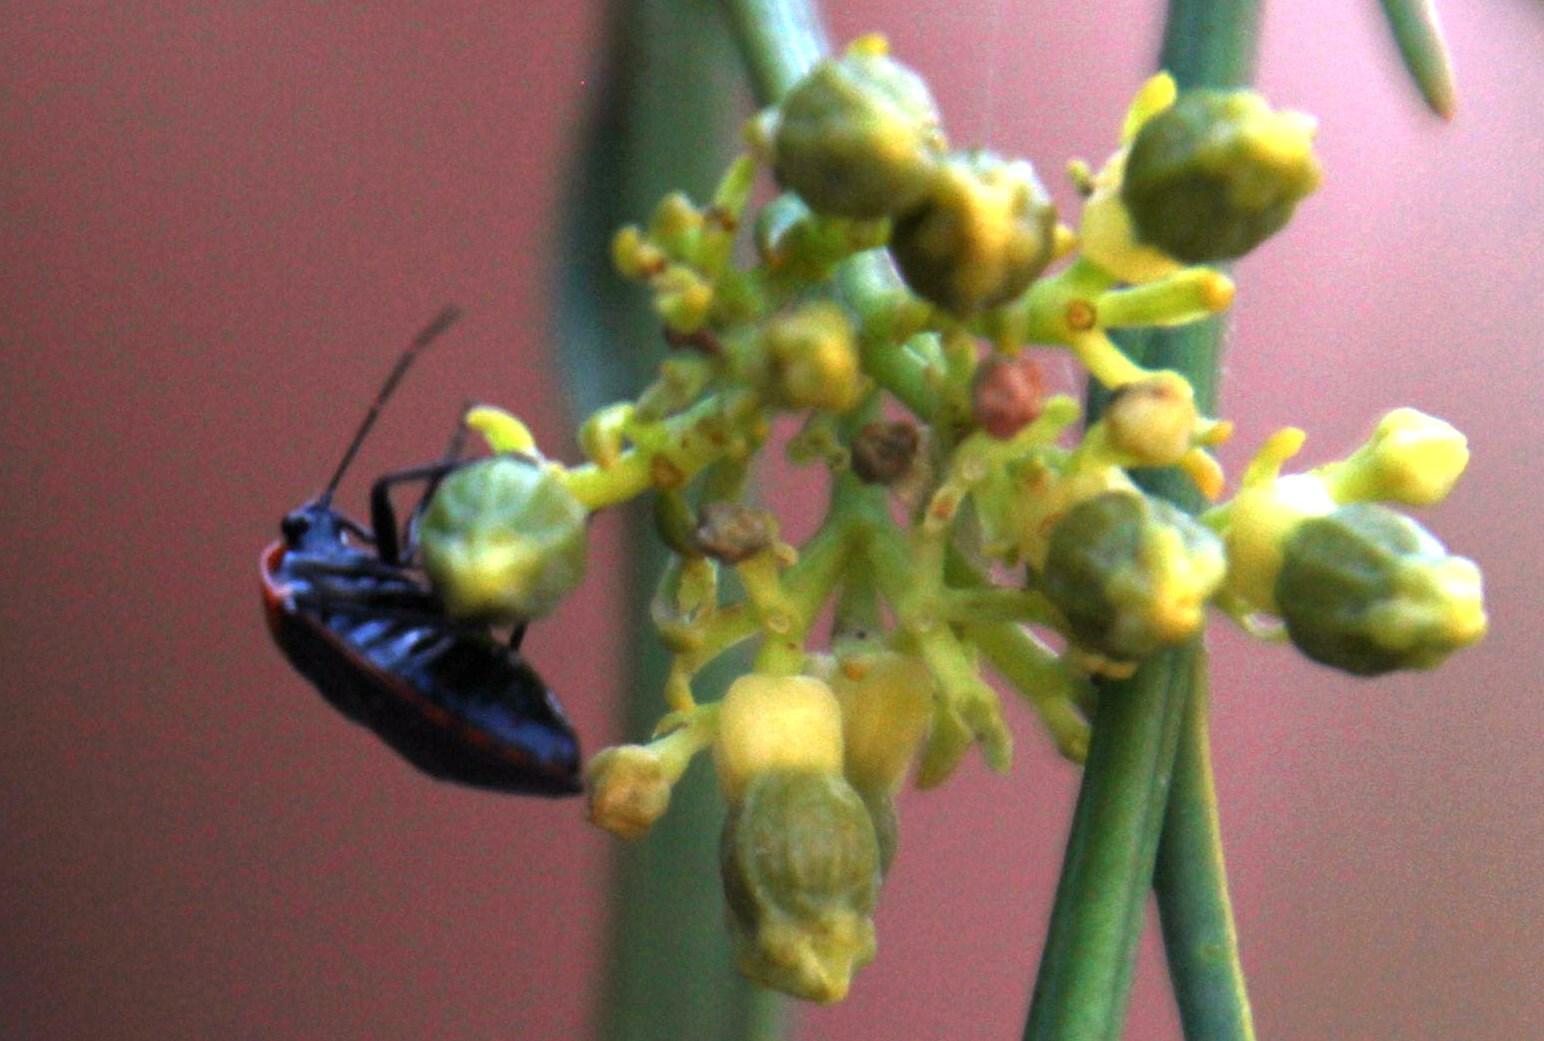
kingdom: Animalia
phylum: Arthropoda
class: Insecta
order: Hemiptera
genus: Dismegistus
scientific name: Dismegistus
